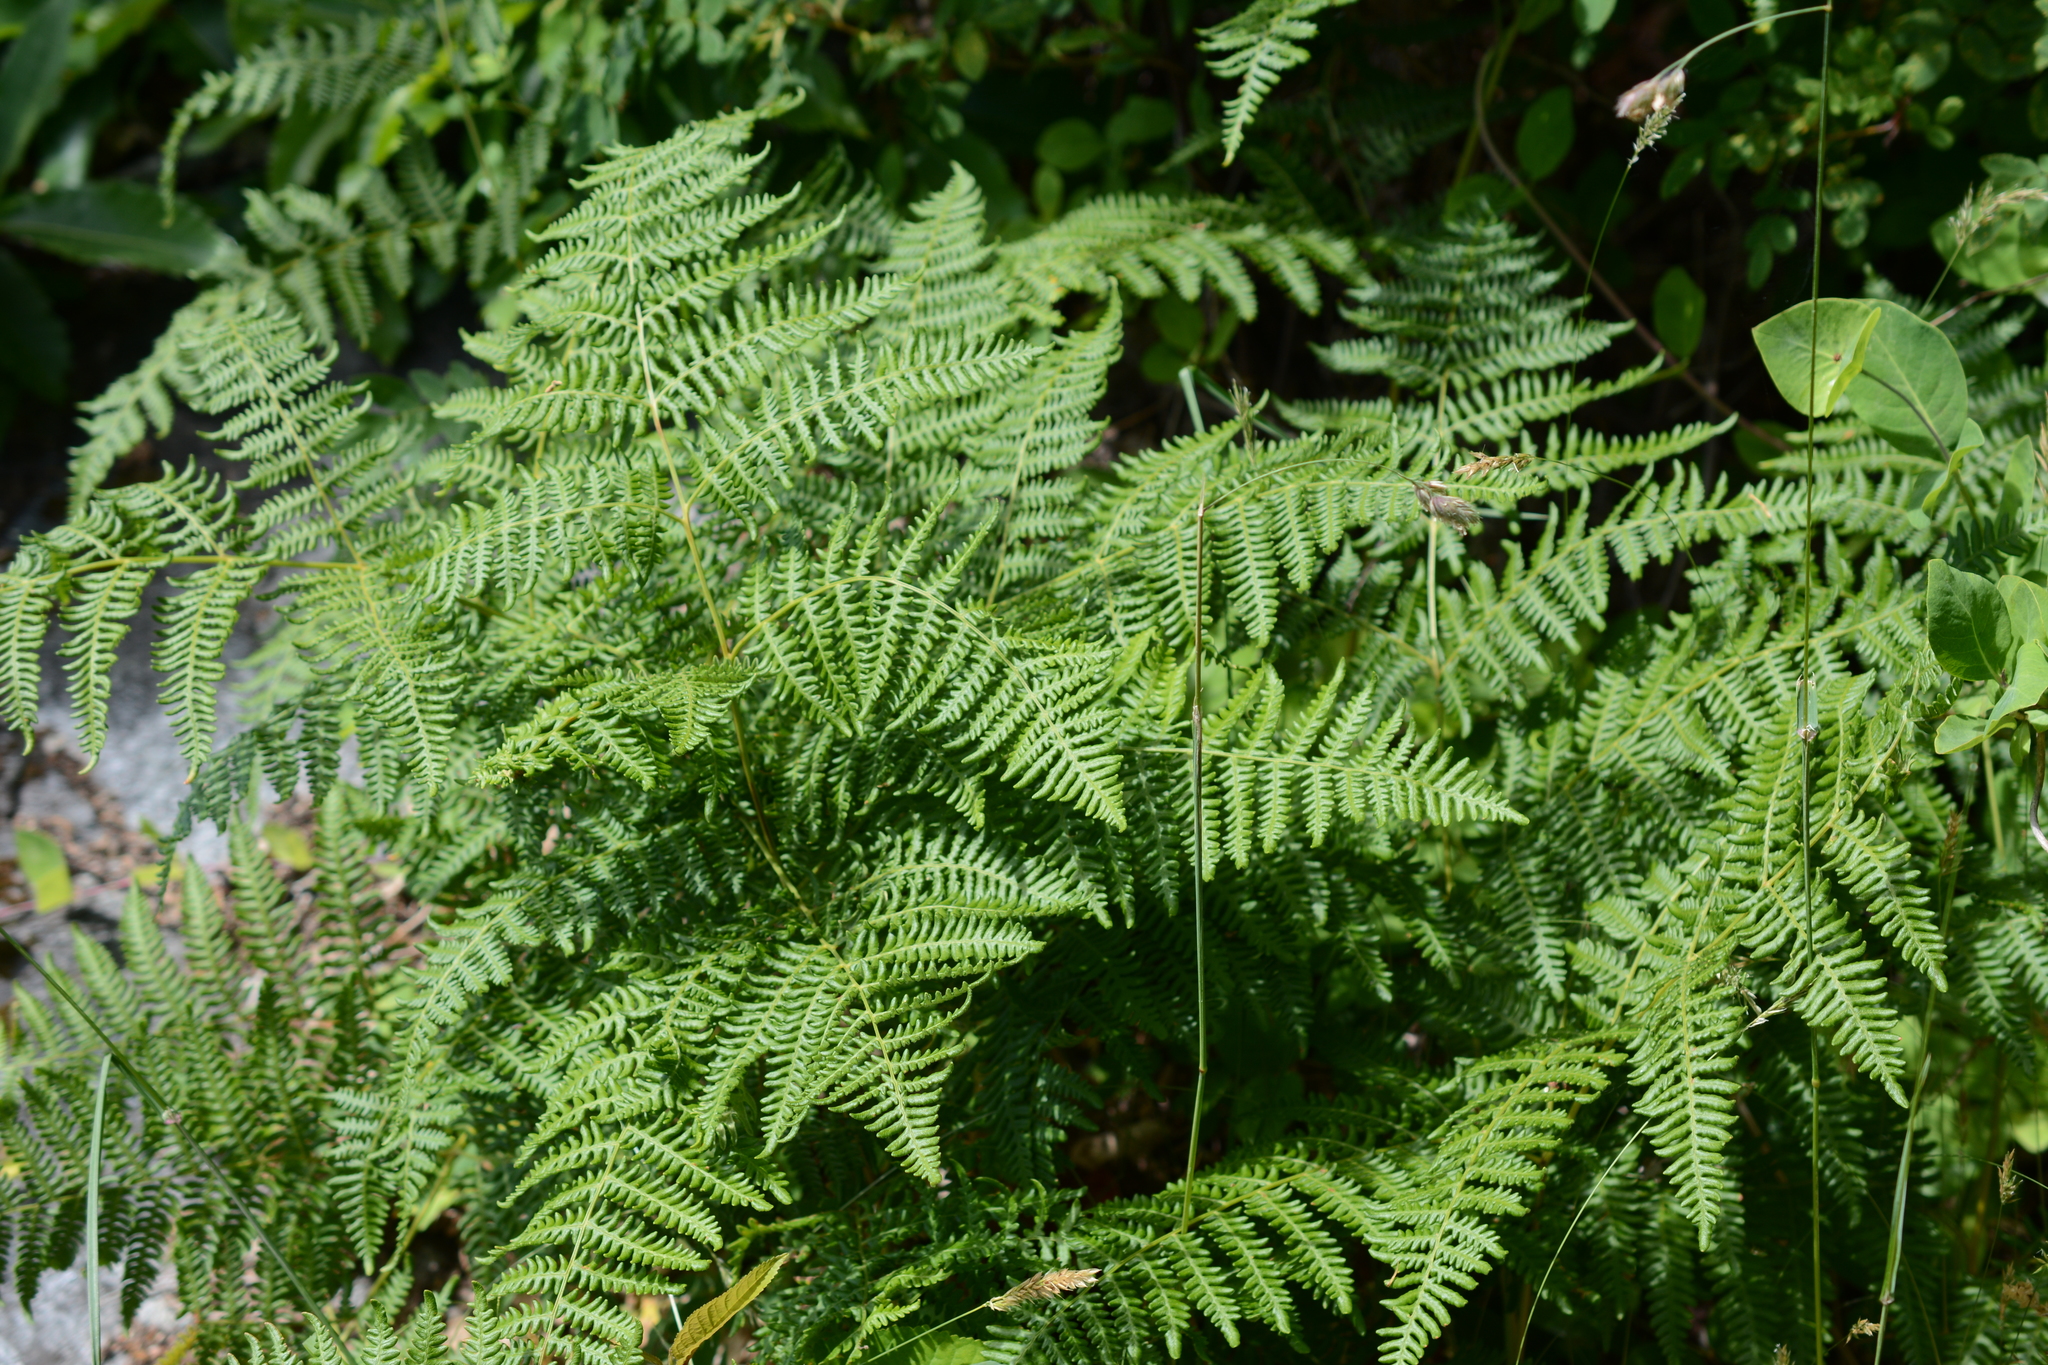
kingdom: Plantae
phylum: Tracheophyta
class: Polypodiopsida
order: Polypodiales
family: Dennstaedtiaceae
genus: Pteridium
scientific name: Pteridium aquilinum
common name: Bracken
